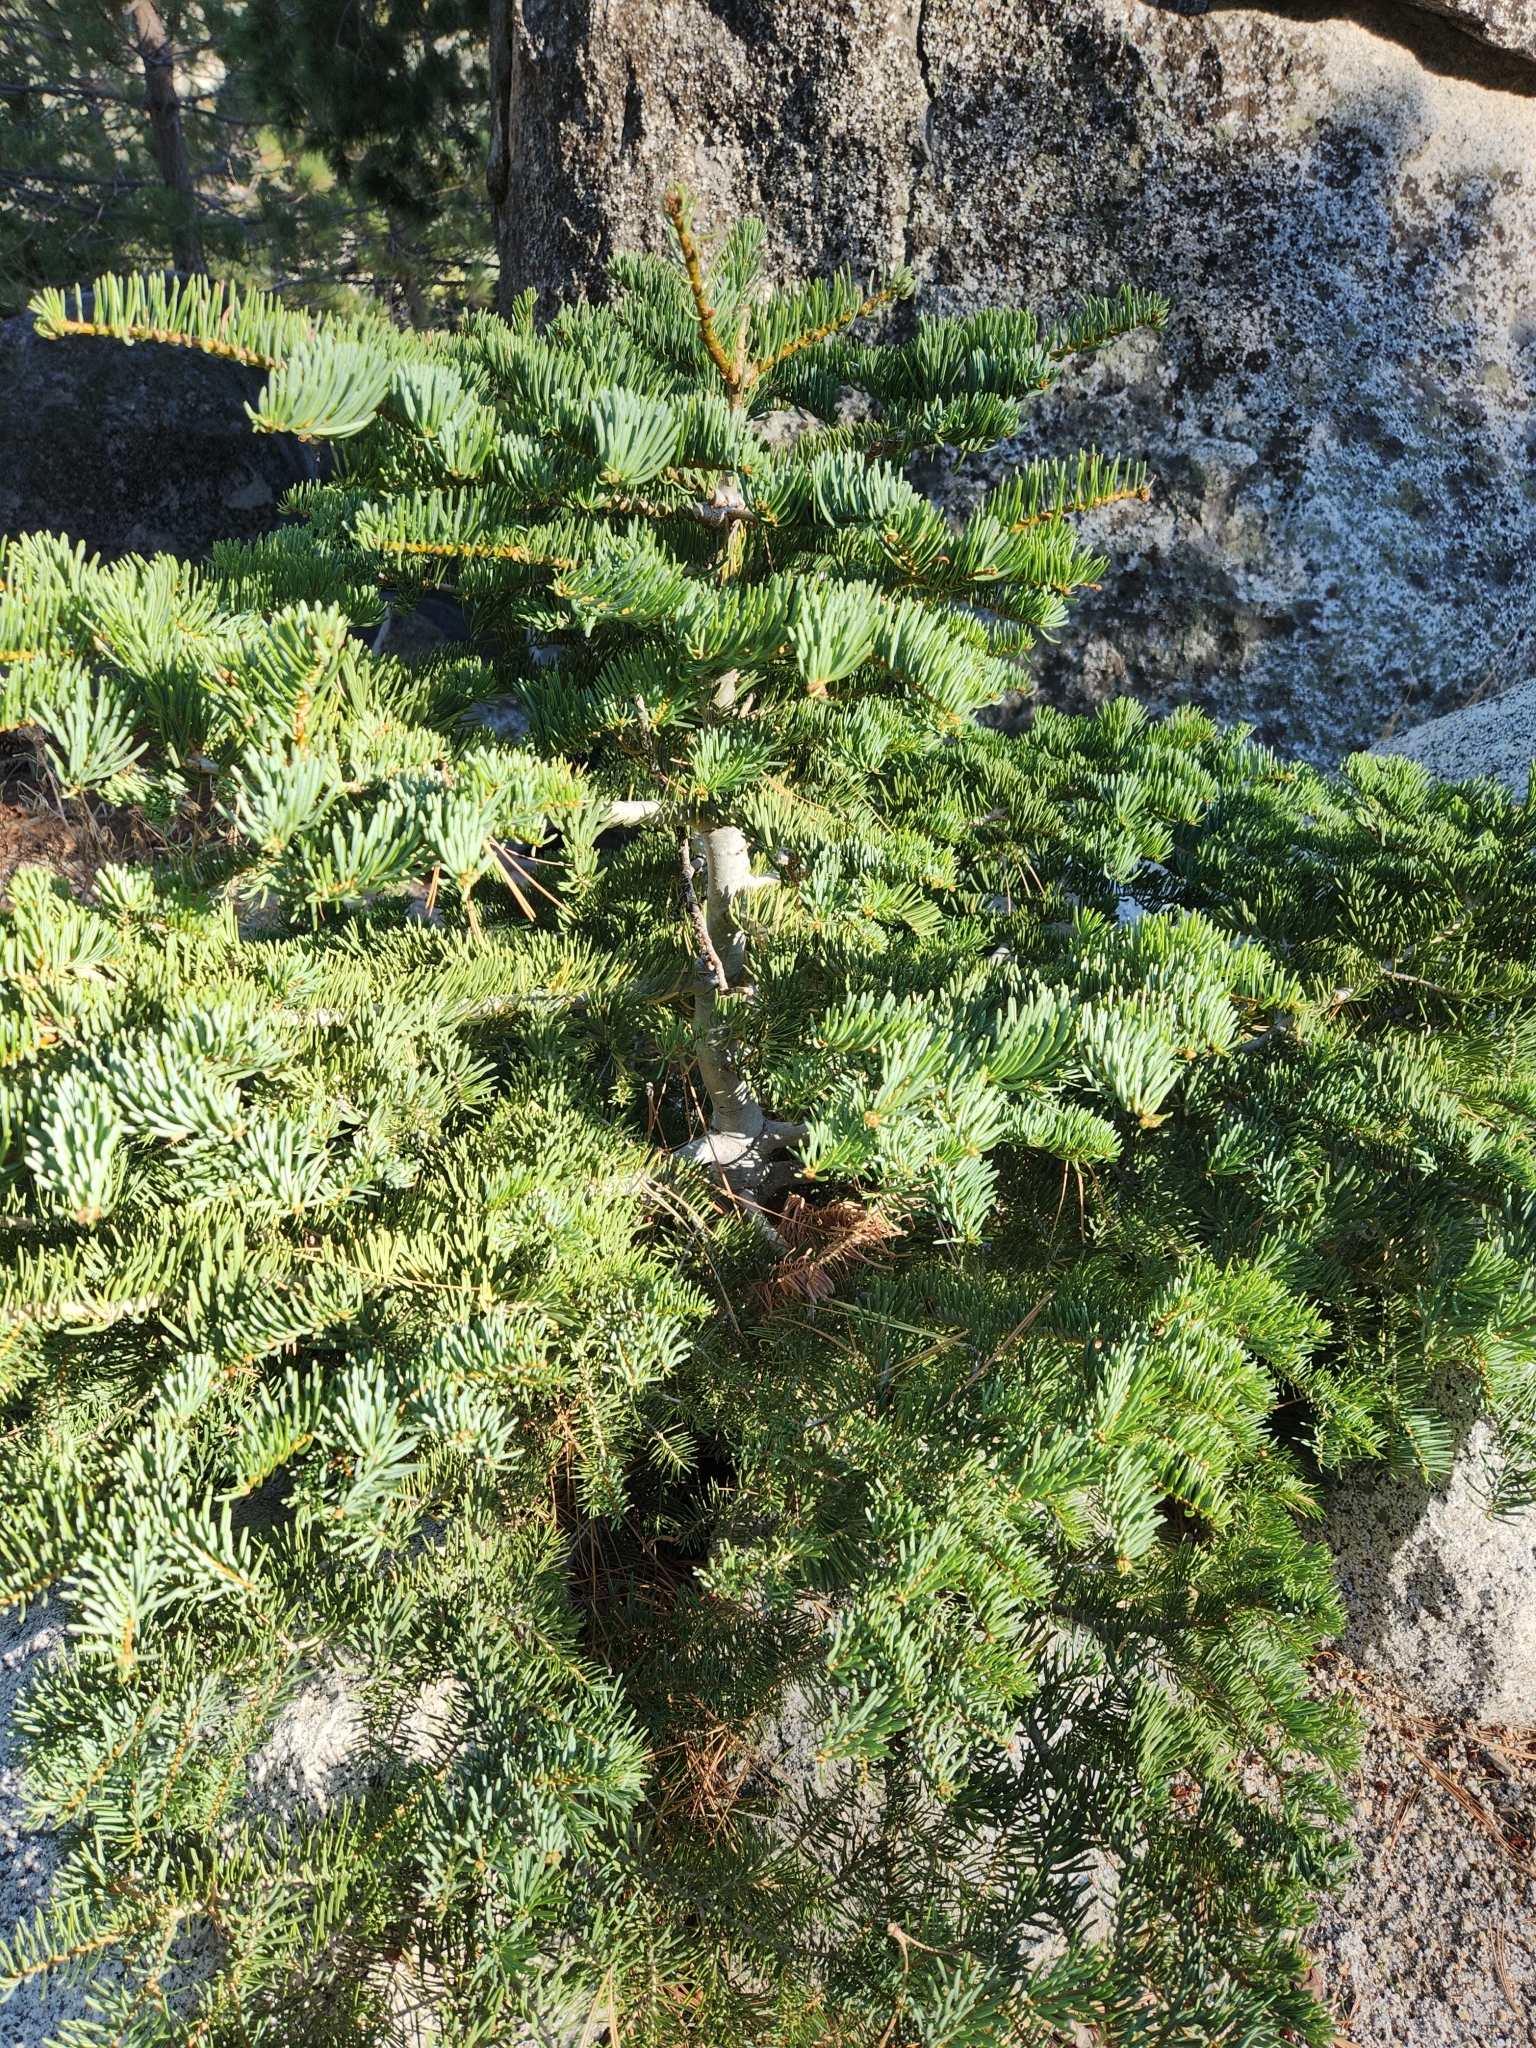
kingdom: Plantae
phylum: Tracheophyta
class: Pinopsida
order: Pinales
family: Pinaceae
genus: Abies
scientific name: Abies concolor
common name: Colorado fir
